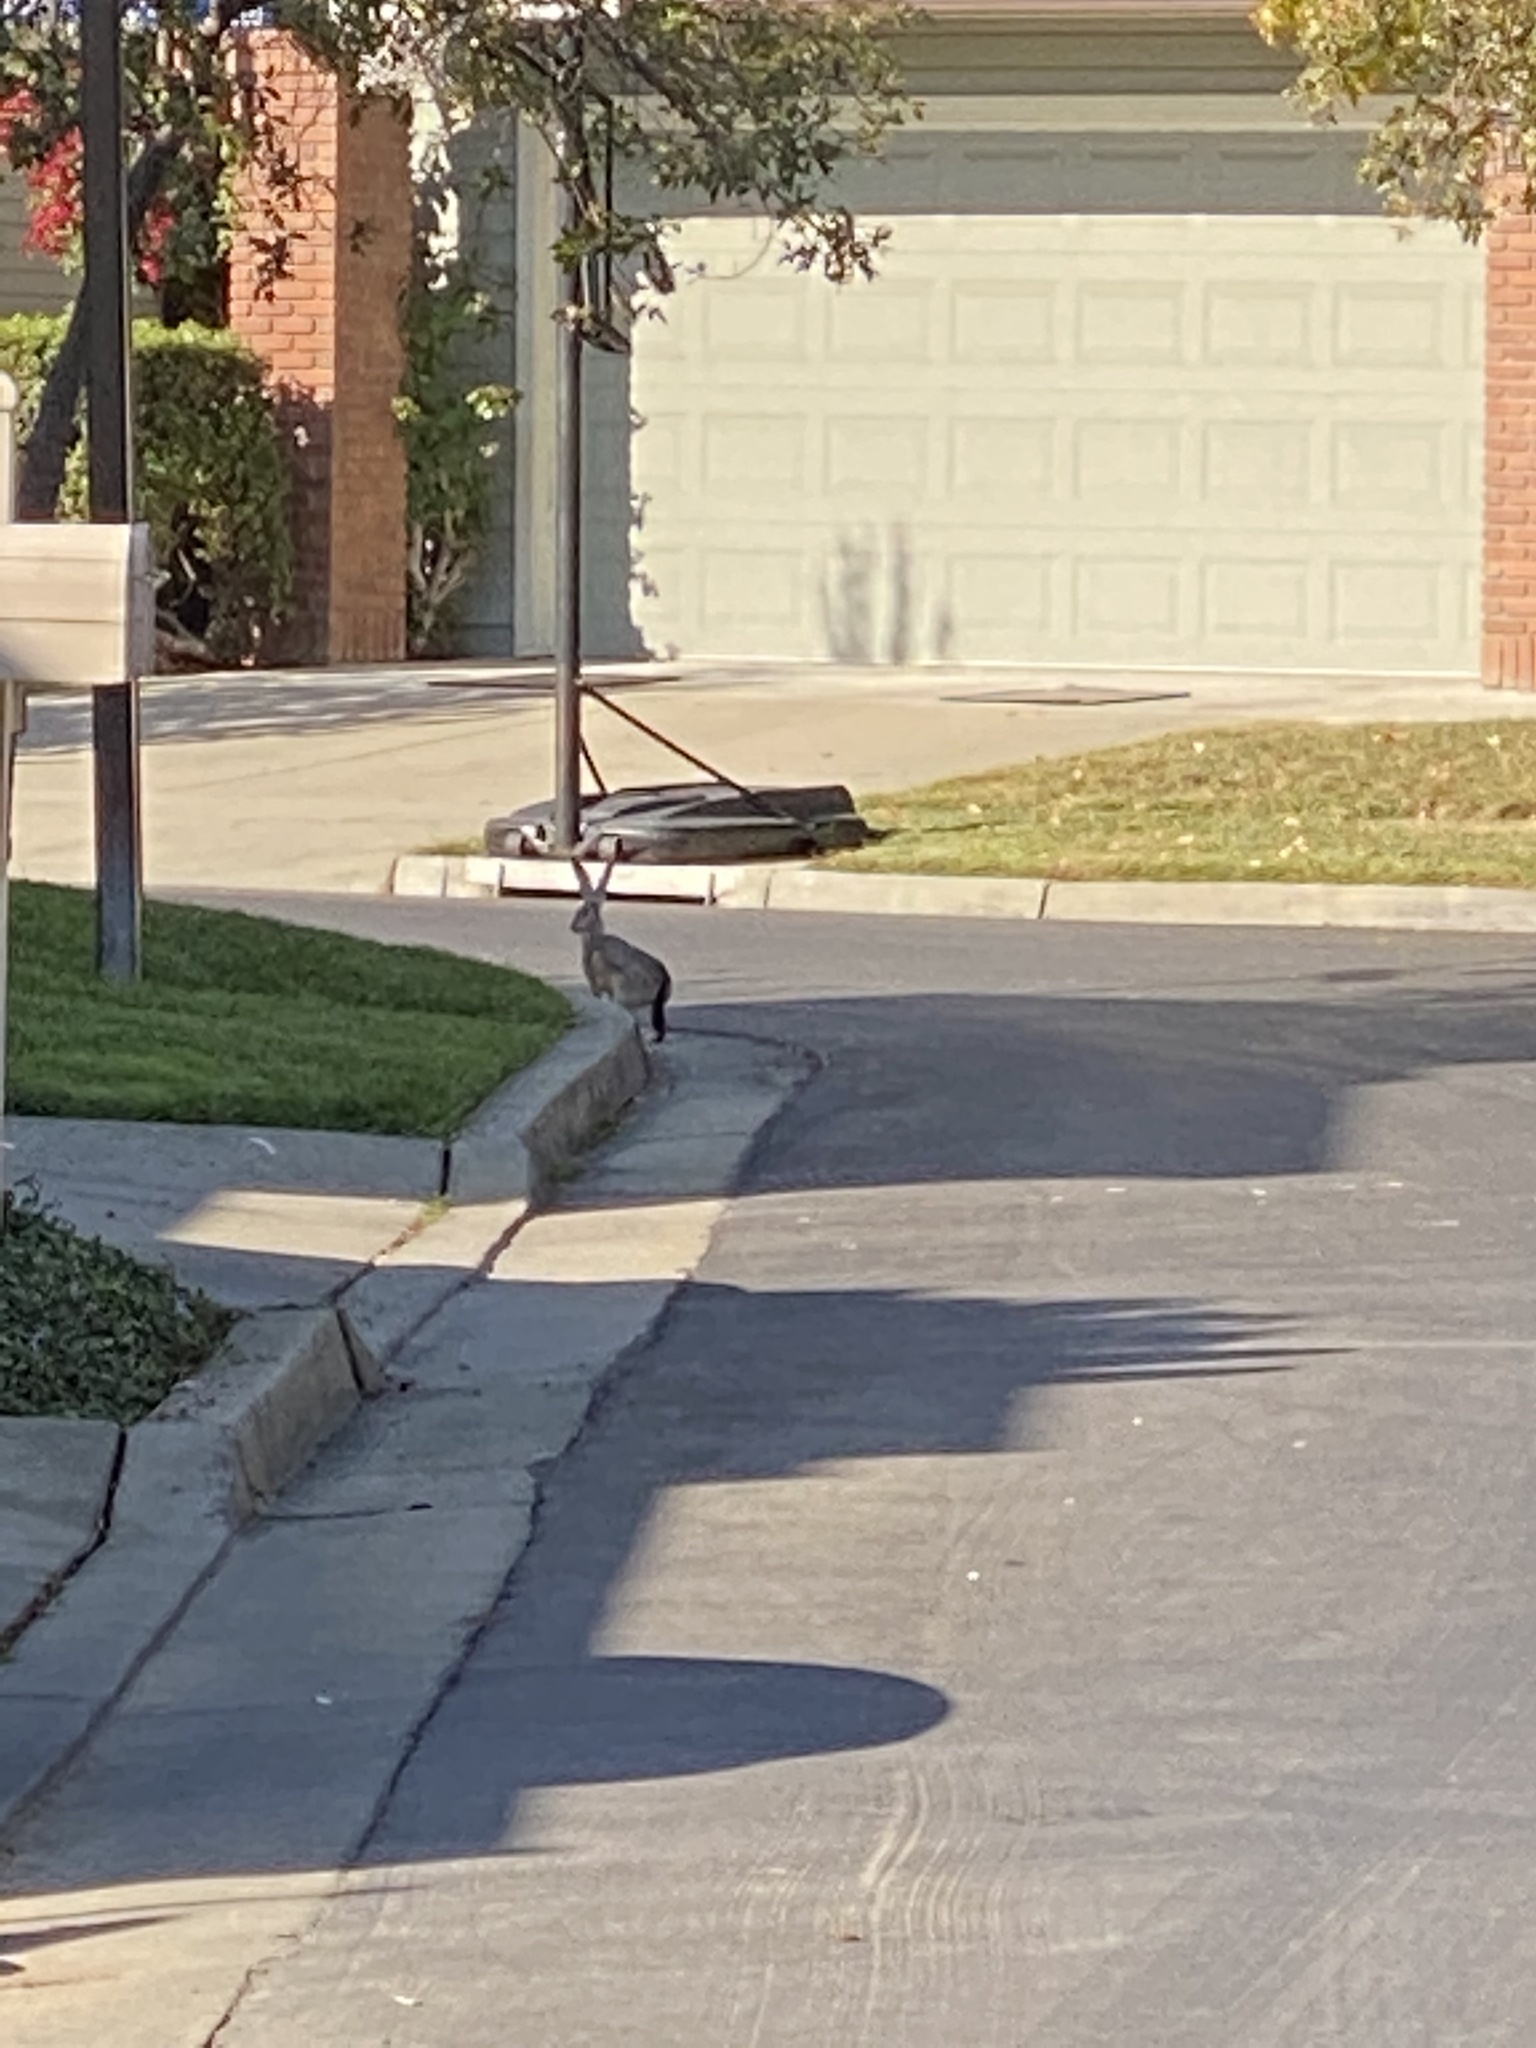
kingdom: Animalia
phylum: Chordata
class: Mammalia
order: Lagomorpha
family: Leporidae
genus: Lepus
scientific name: Lepus californicus
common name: Black-tailed jackrabbit
